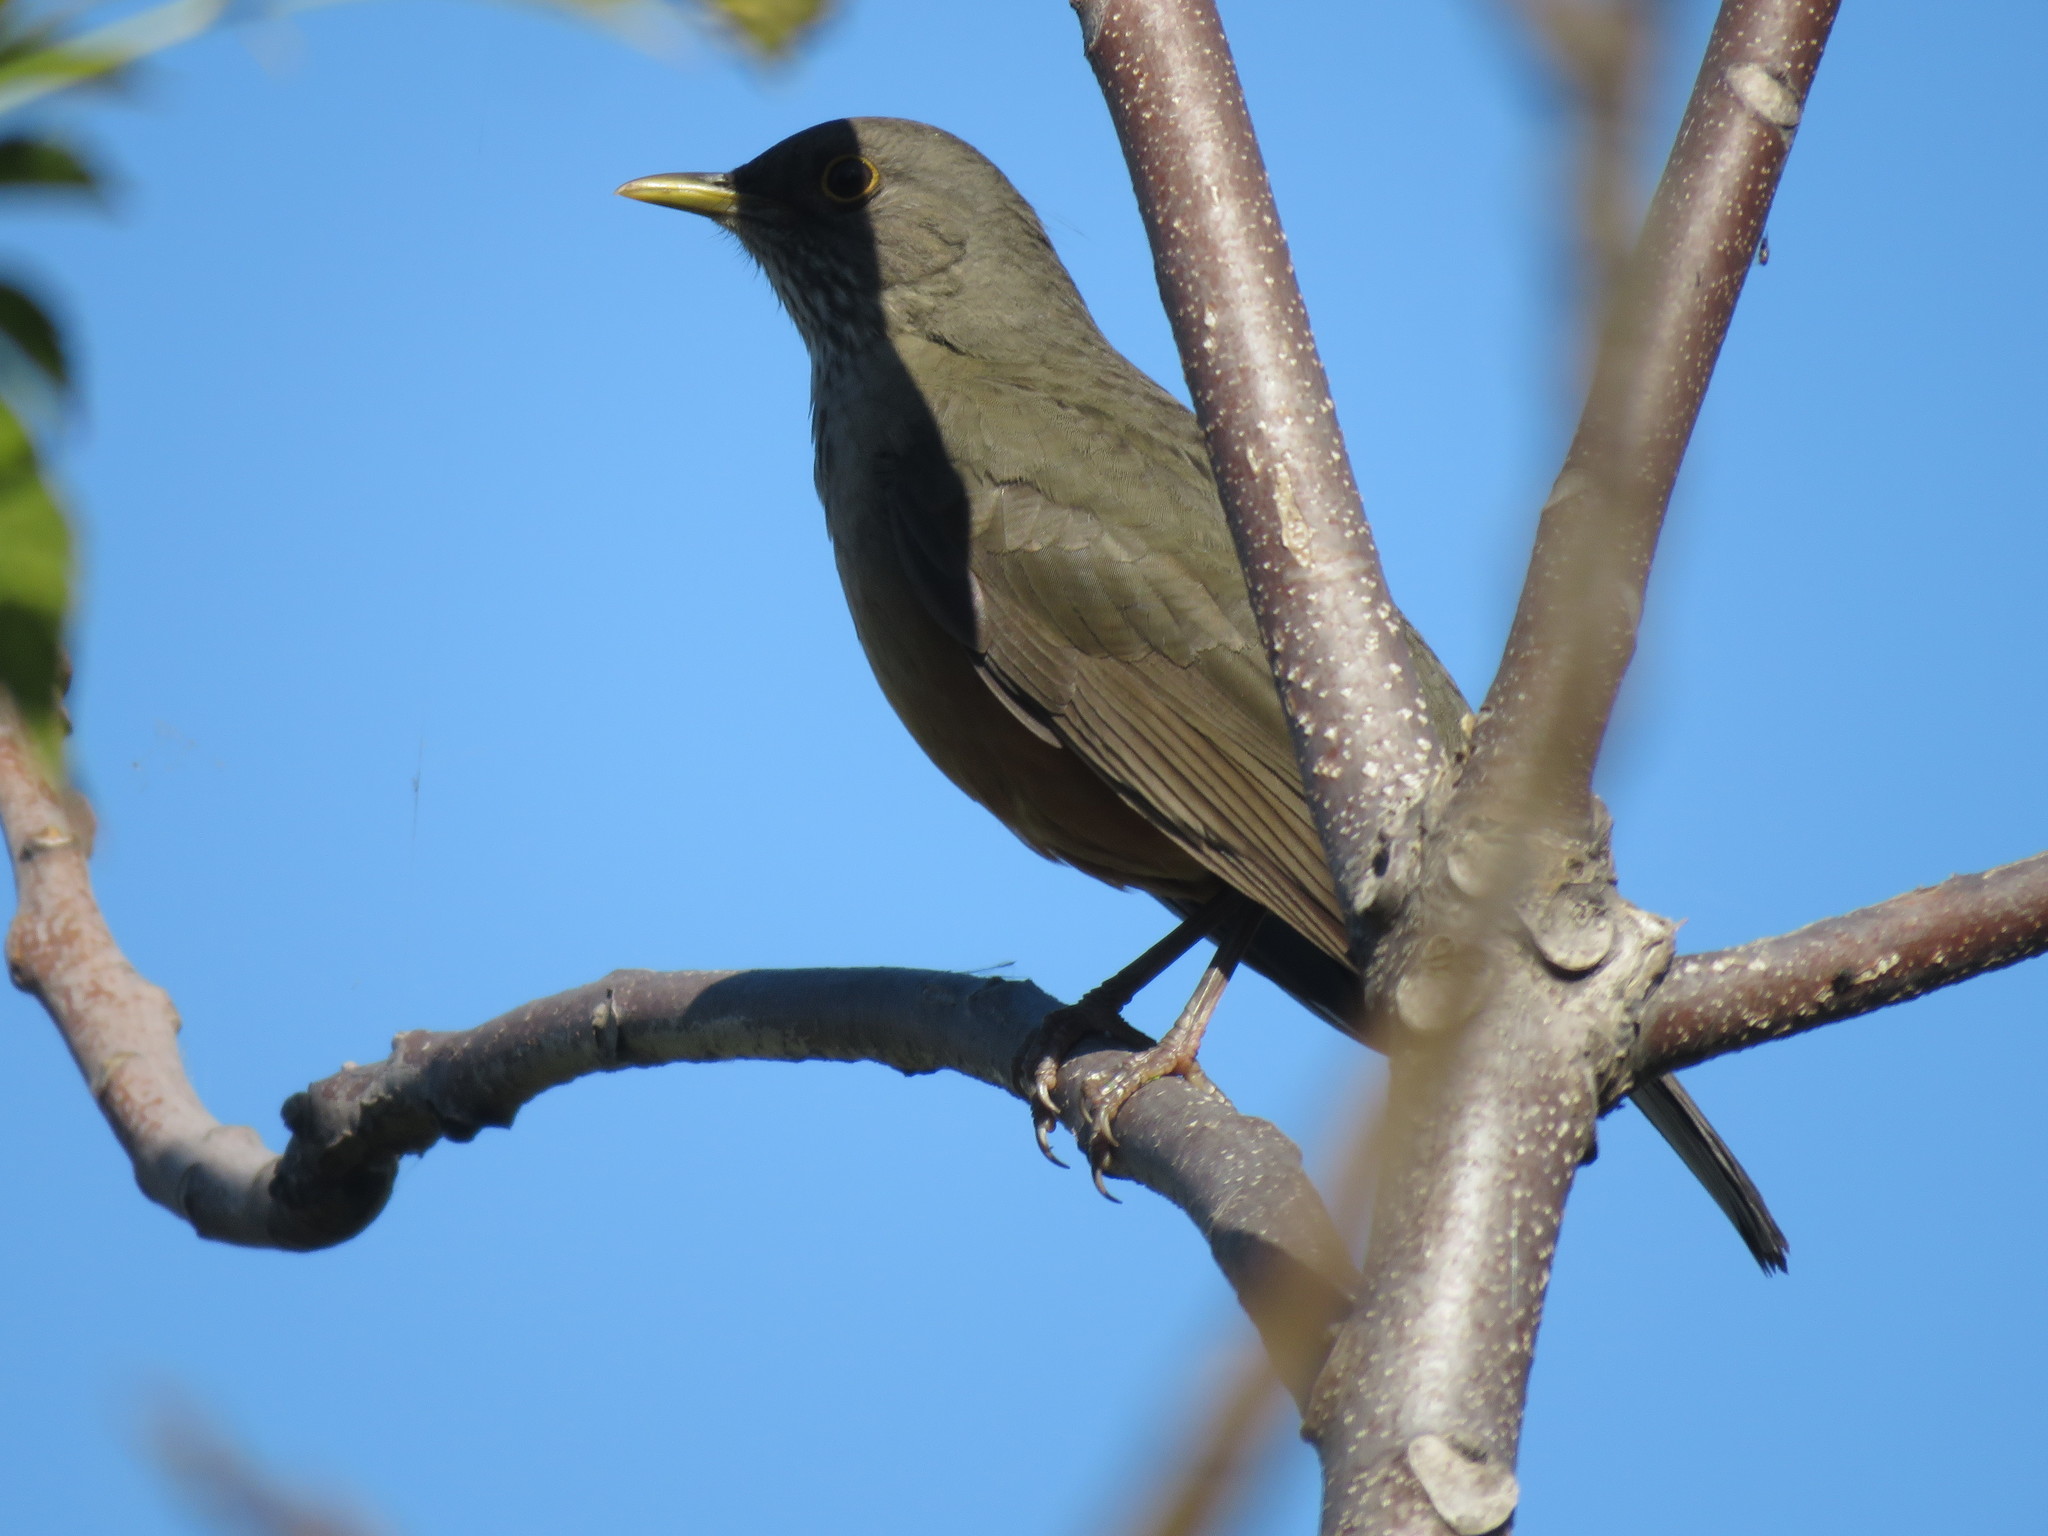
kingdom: Animalia
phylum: Chordata
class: Aves
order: Passeriformes
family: Turdidae
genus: Turdus
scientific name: Turdus rufiventris
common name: Rufous-bellied thrush
